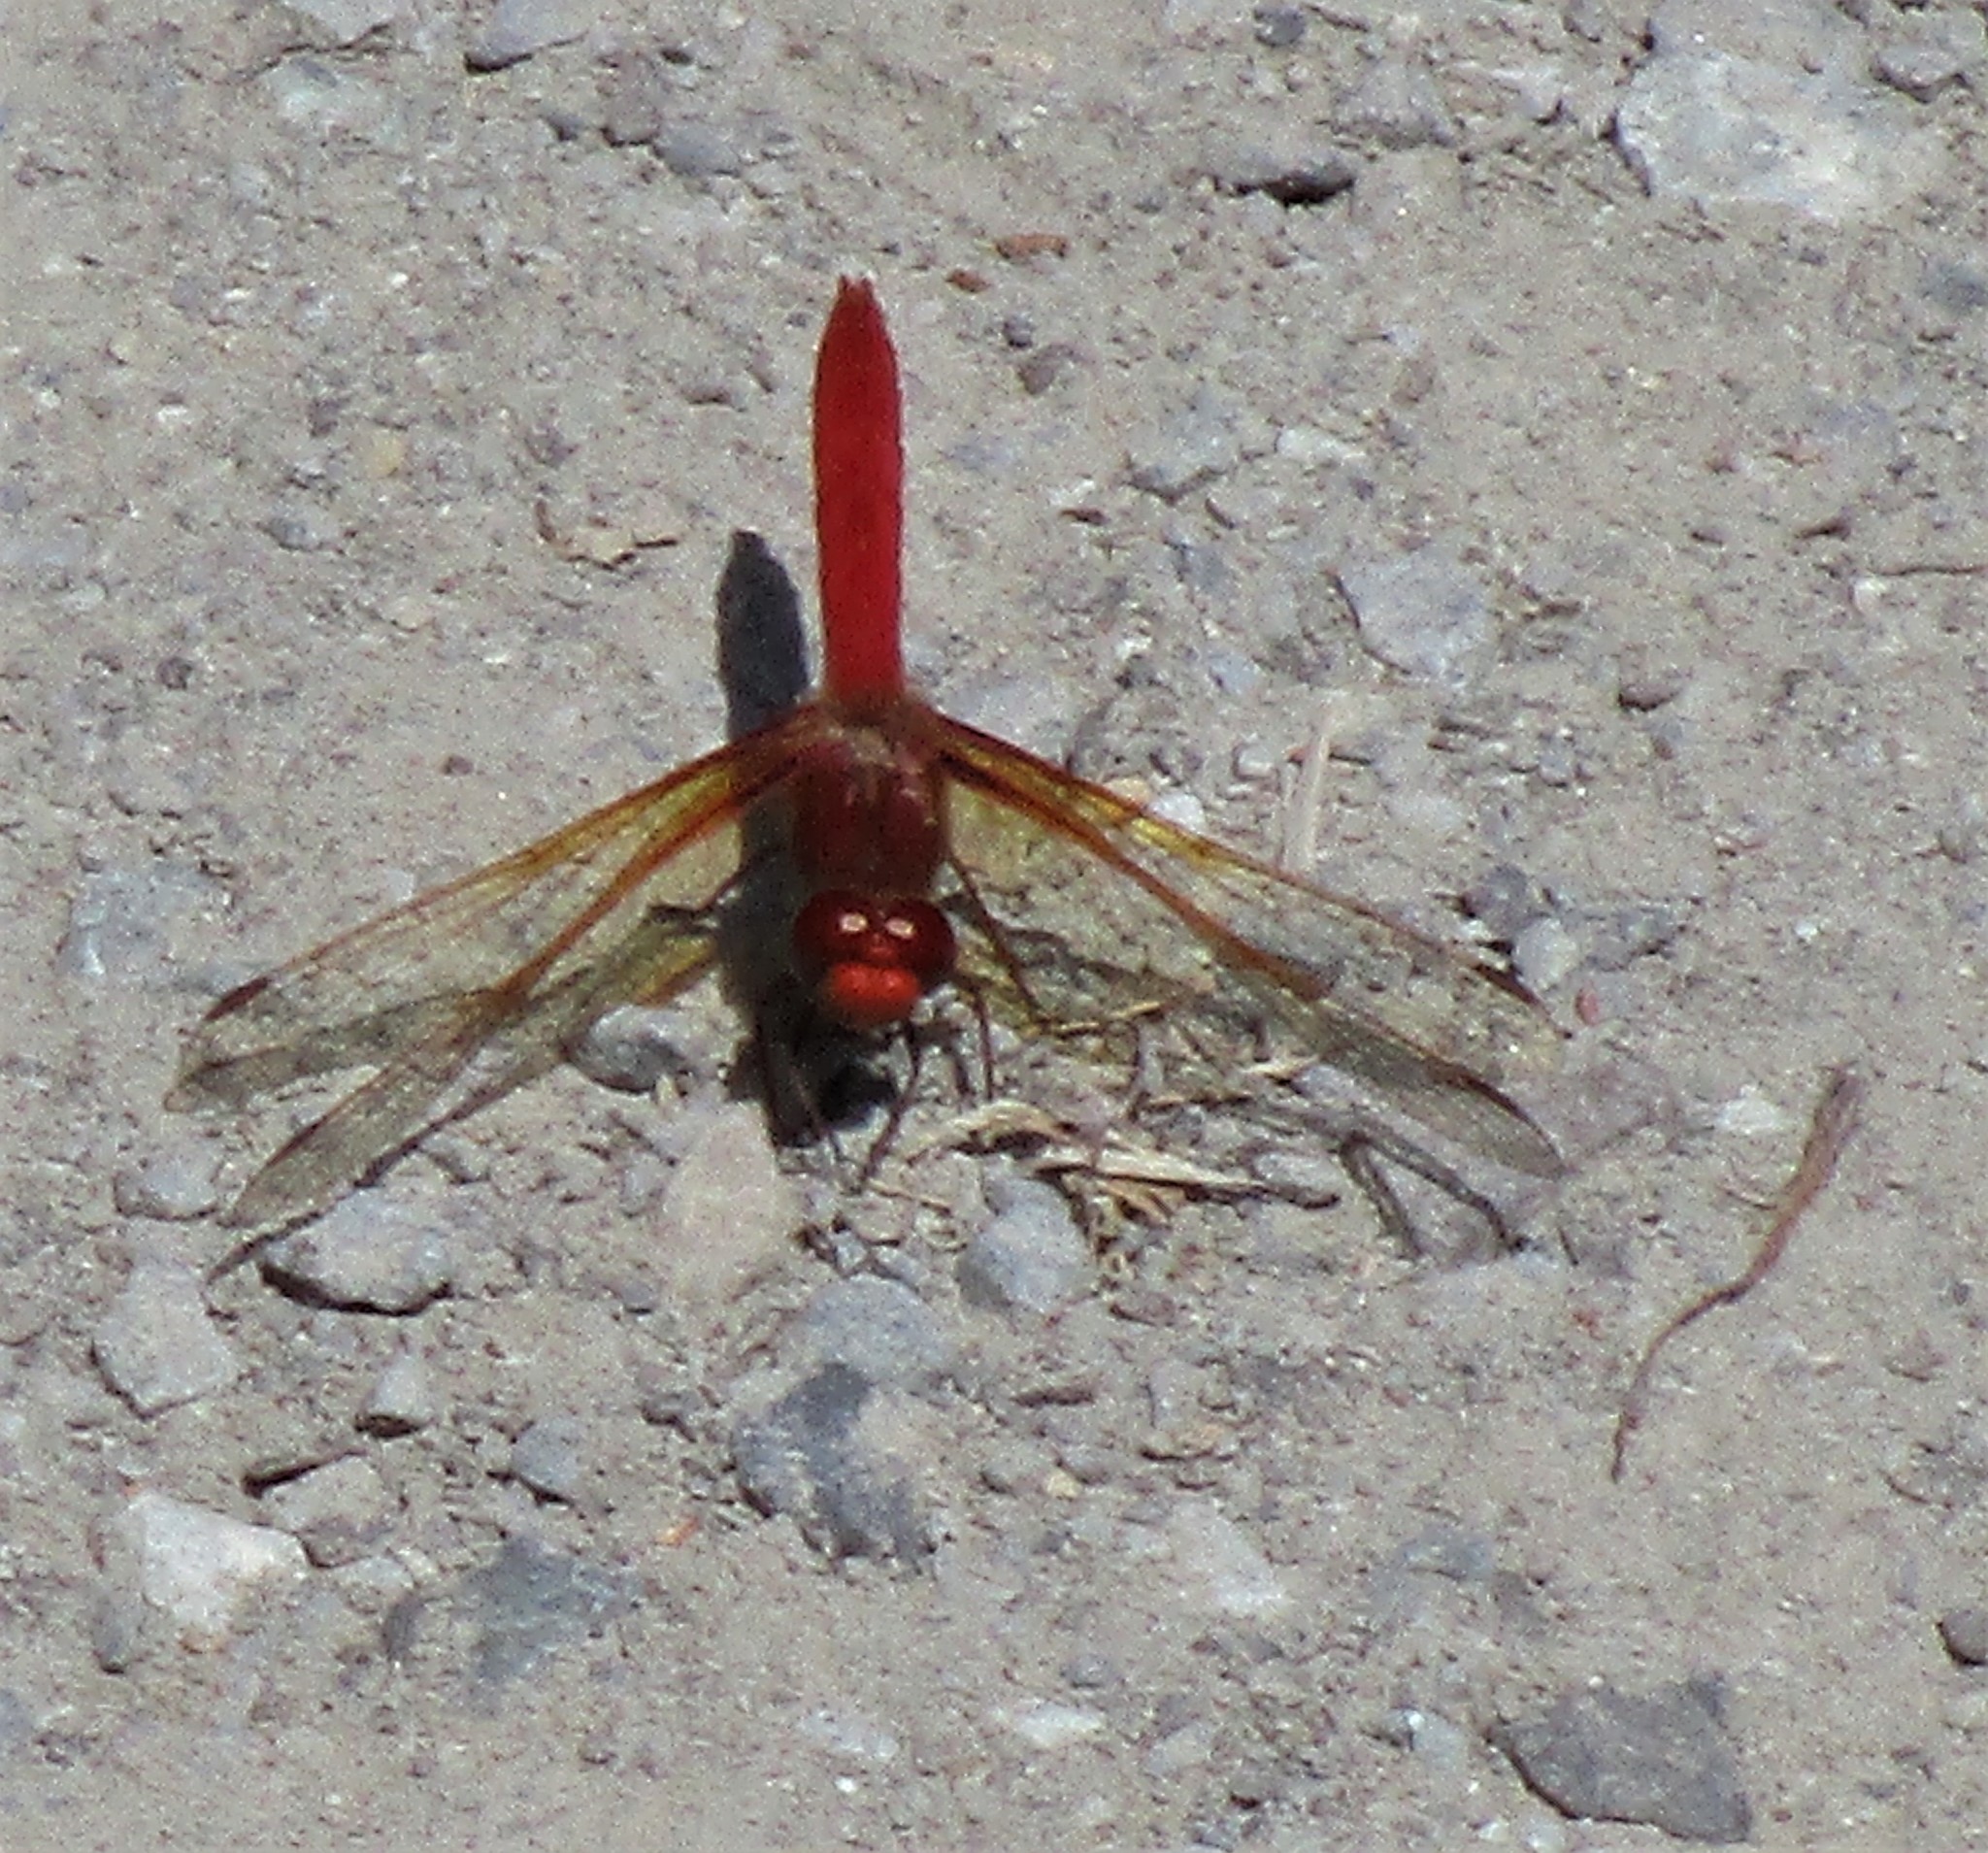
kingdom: Animalia
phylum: Arthropoda
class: Insecta
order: Odonata
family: Libellulidae
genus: Sympetrum
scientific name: Sympetrum illotum
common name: Cardinal meadowhawk
